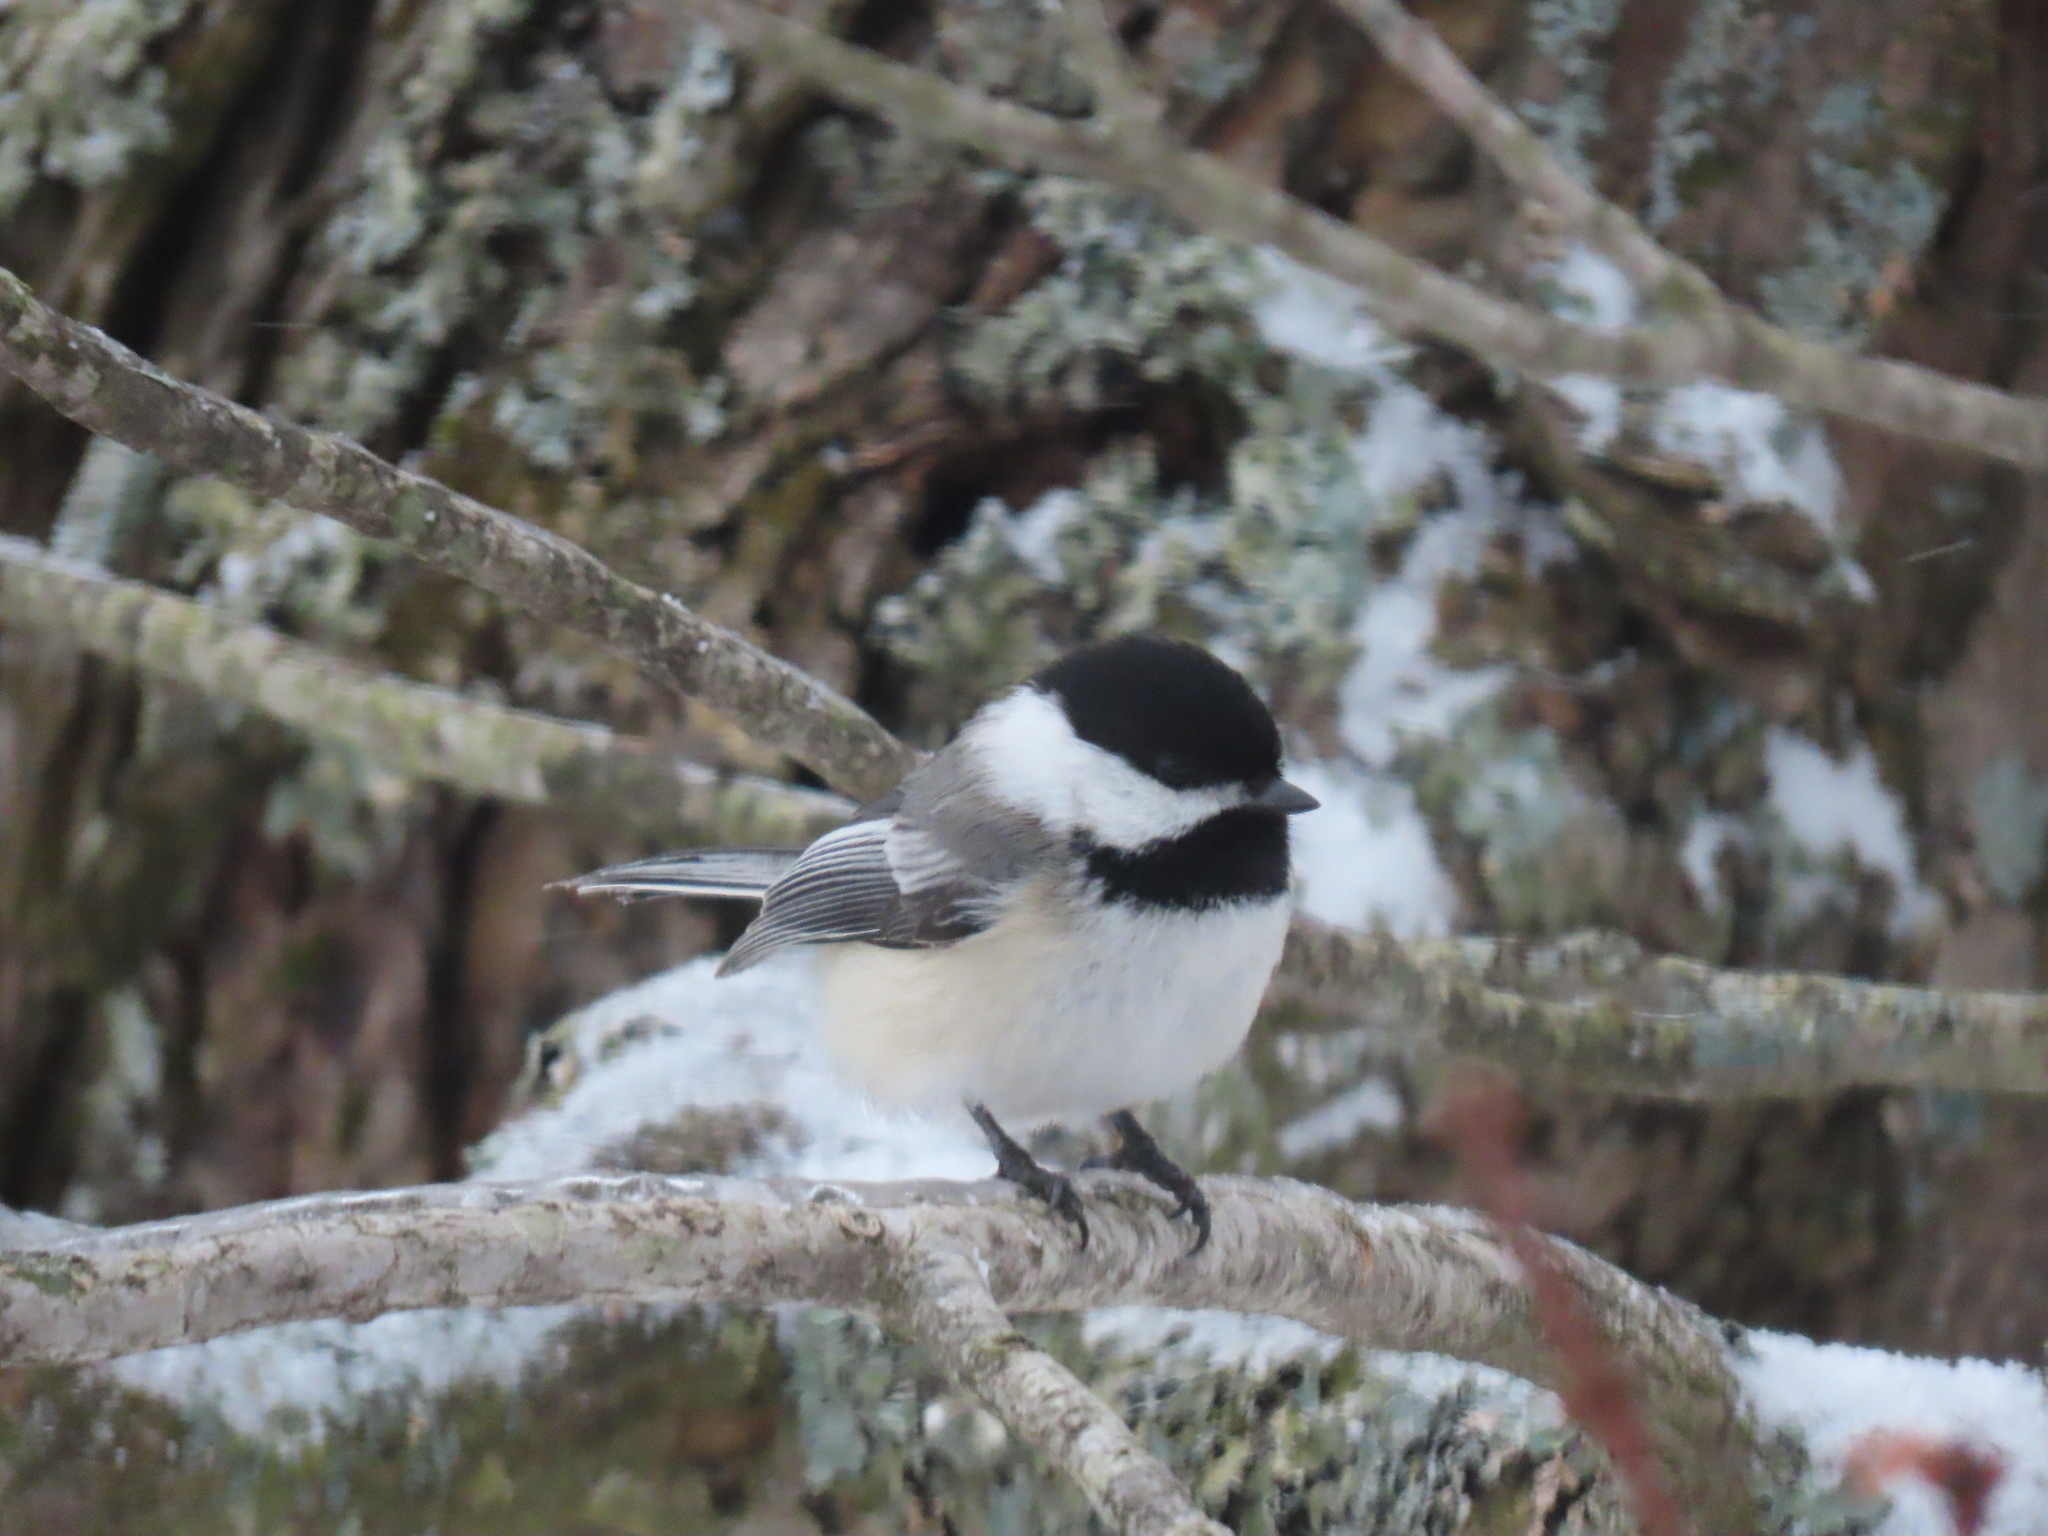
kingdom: Animalia
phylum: Chordata
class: Aves
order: Passeriformes
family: Paridae
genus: Poecile
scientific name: Poecile atricapillus
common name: Black-capped chickadee
